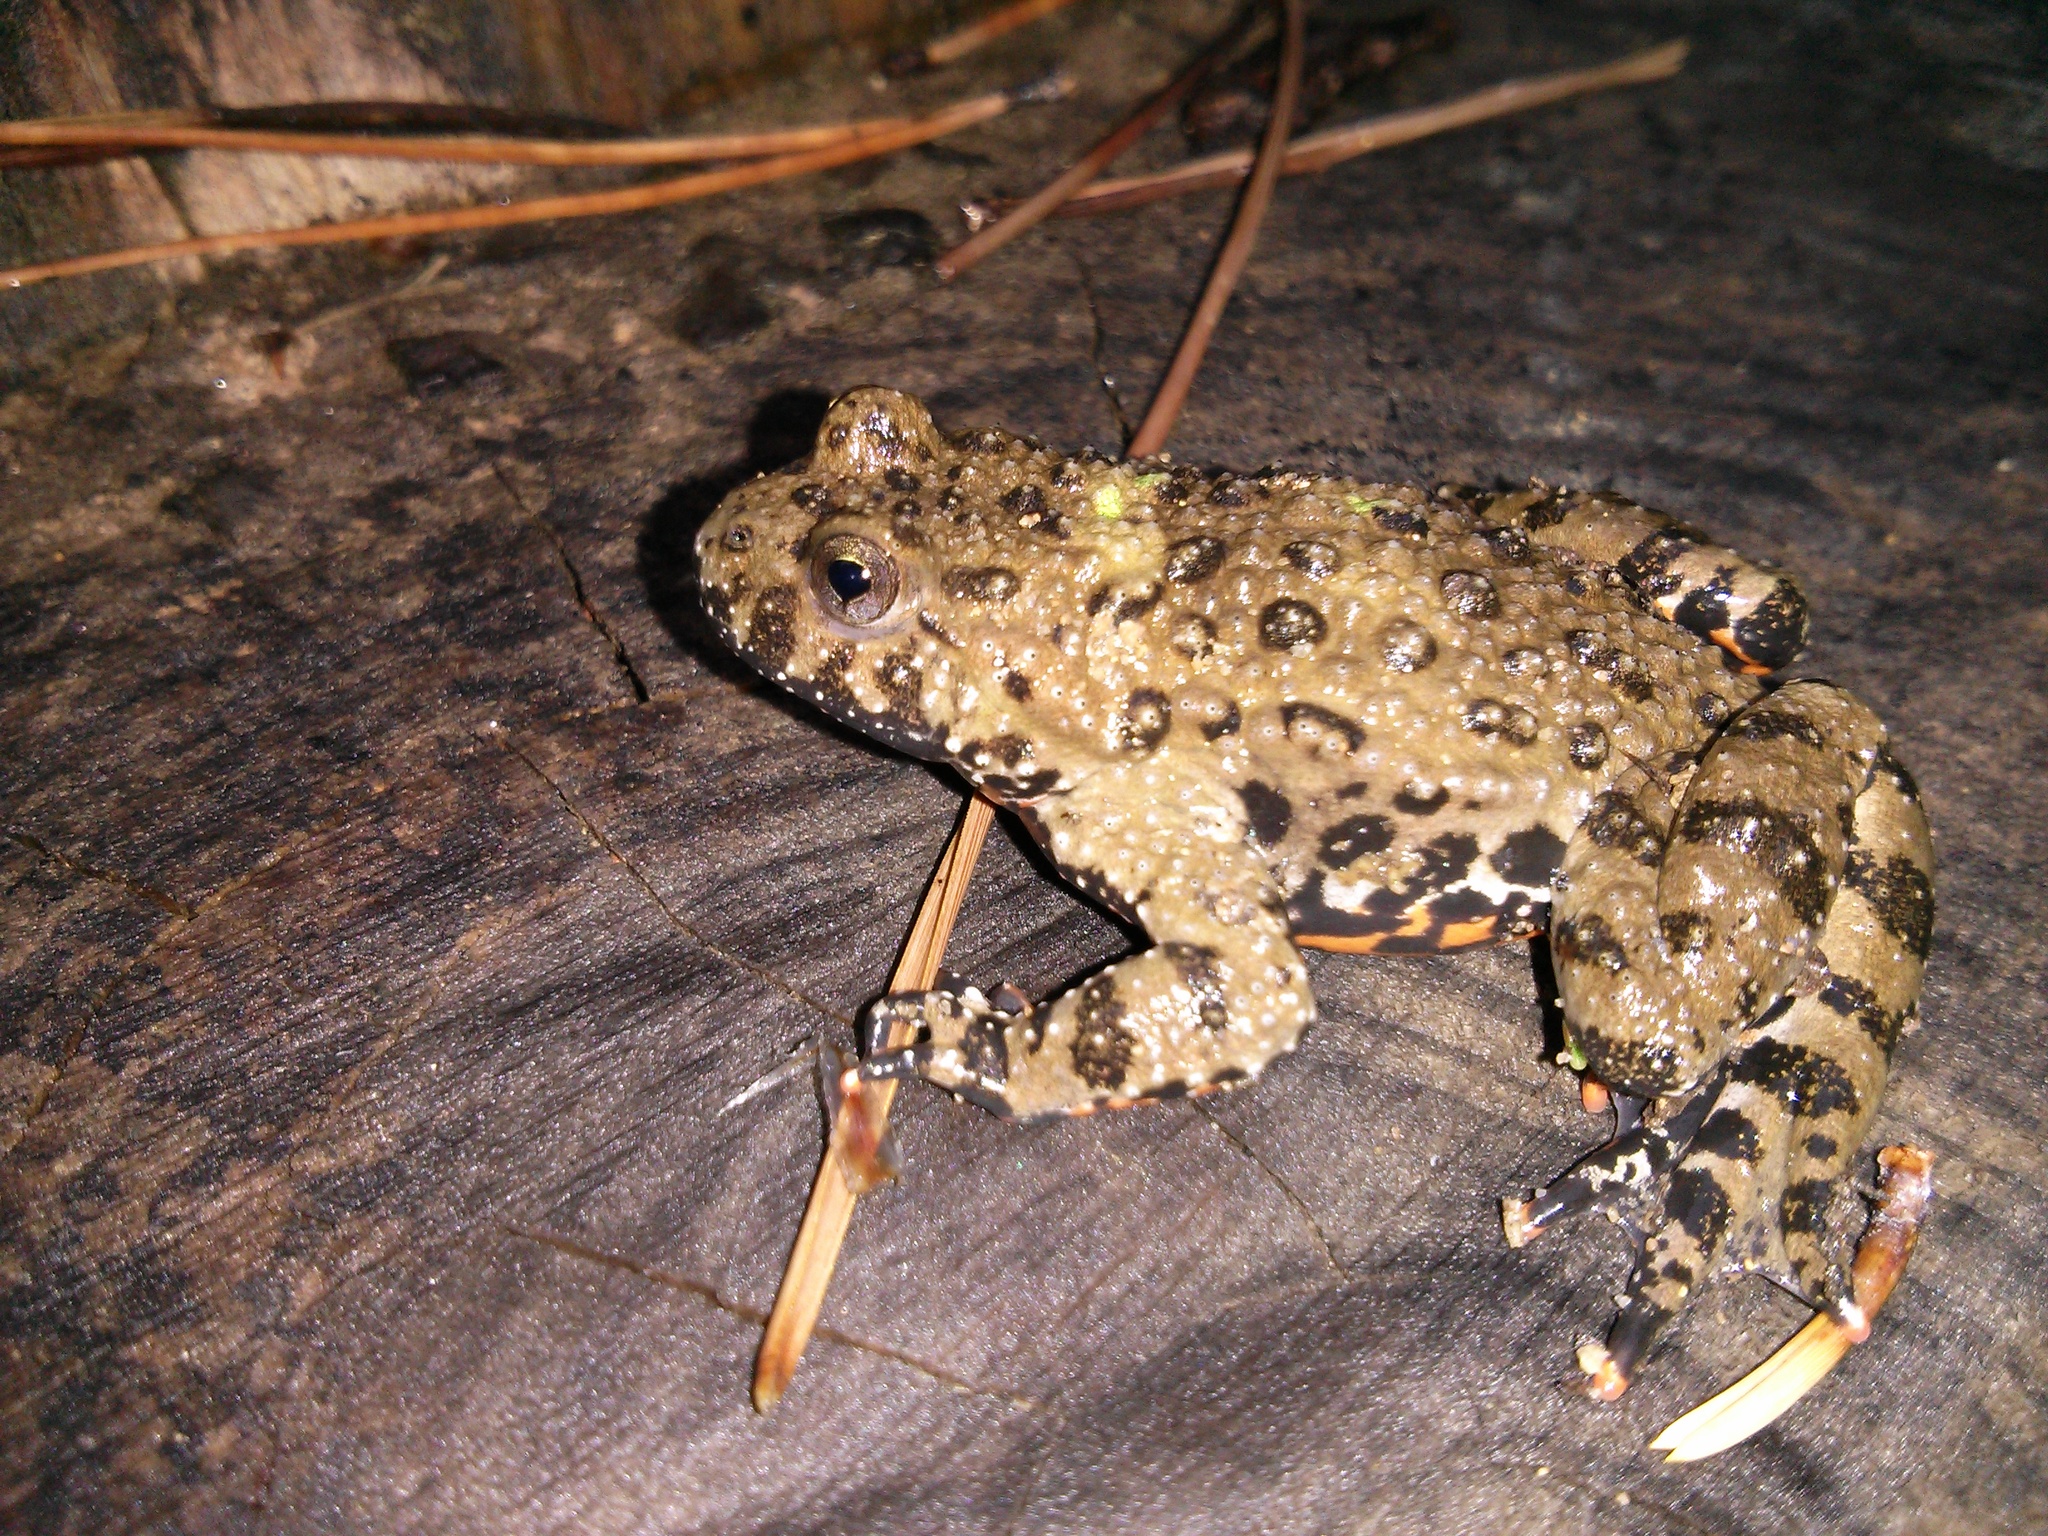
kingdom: Animalia
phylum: Chordata
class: Amphibia
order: Anura
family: Bombinatoridae
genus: Bombina
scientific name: Bombina orientalis
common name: Oriental firebelly toad
